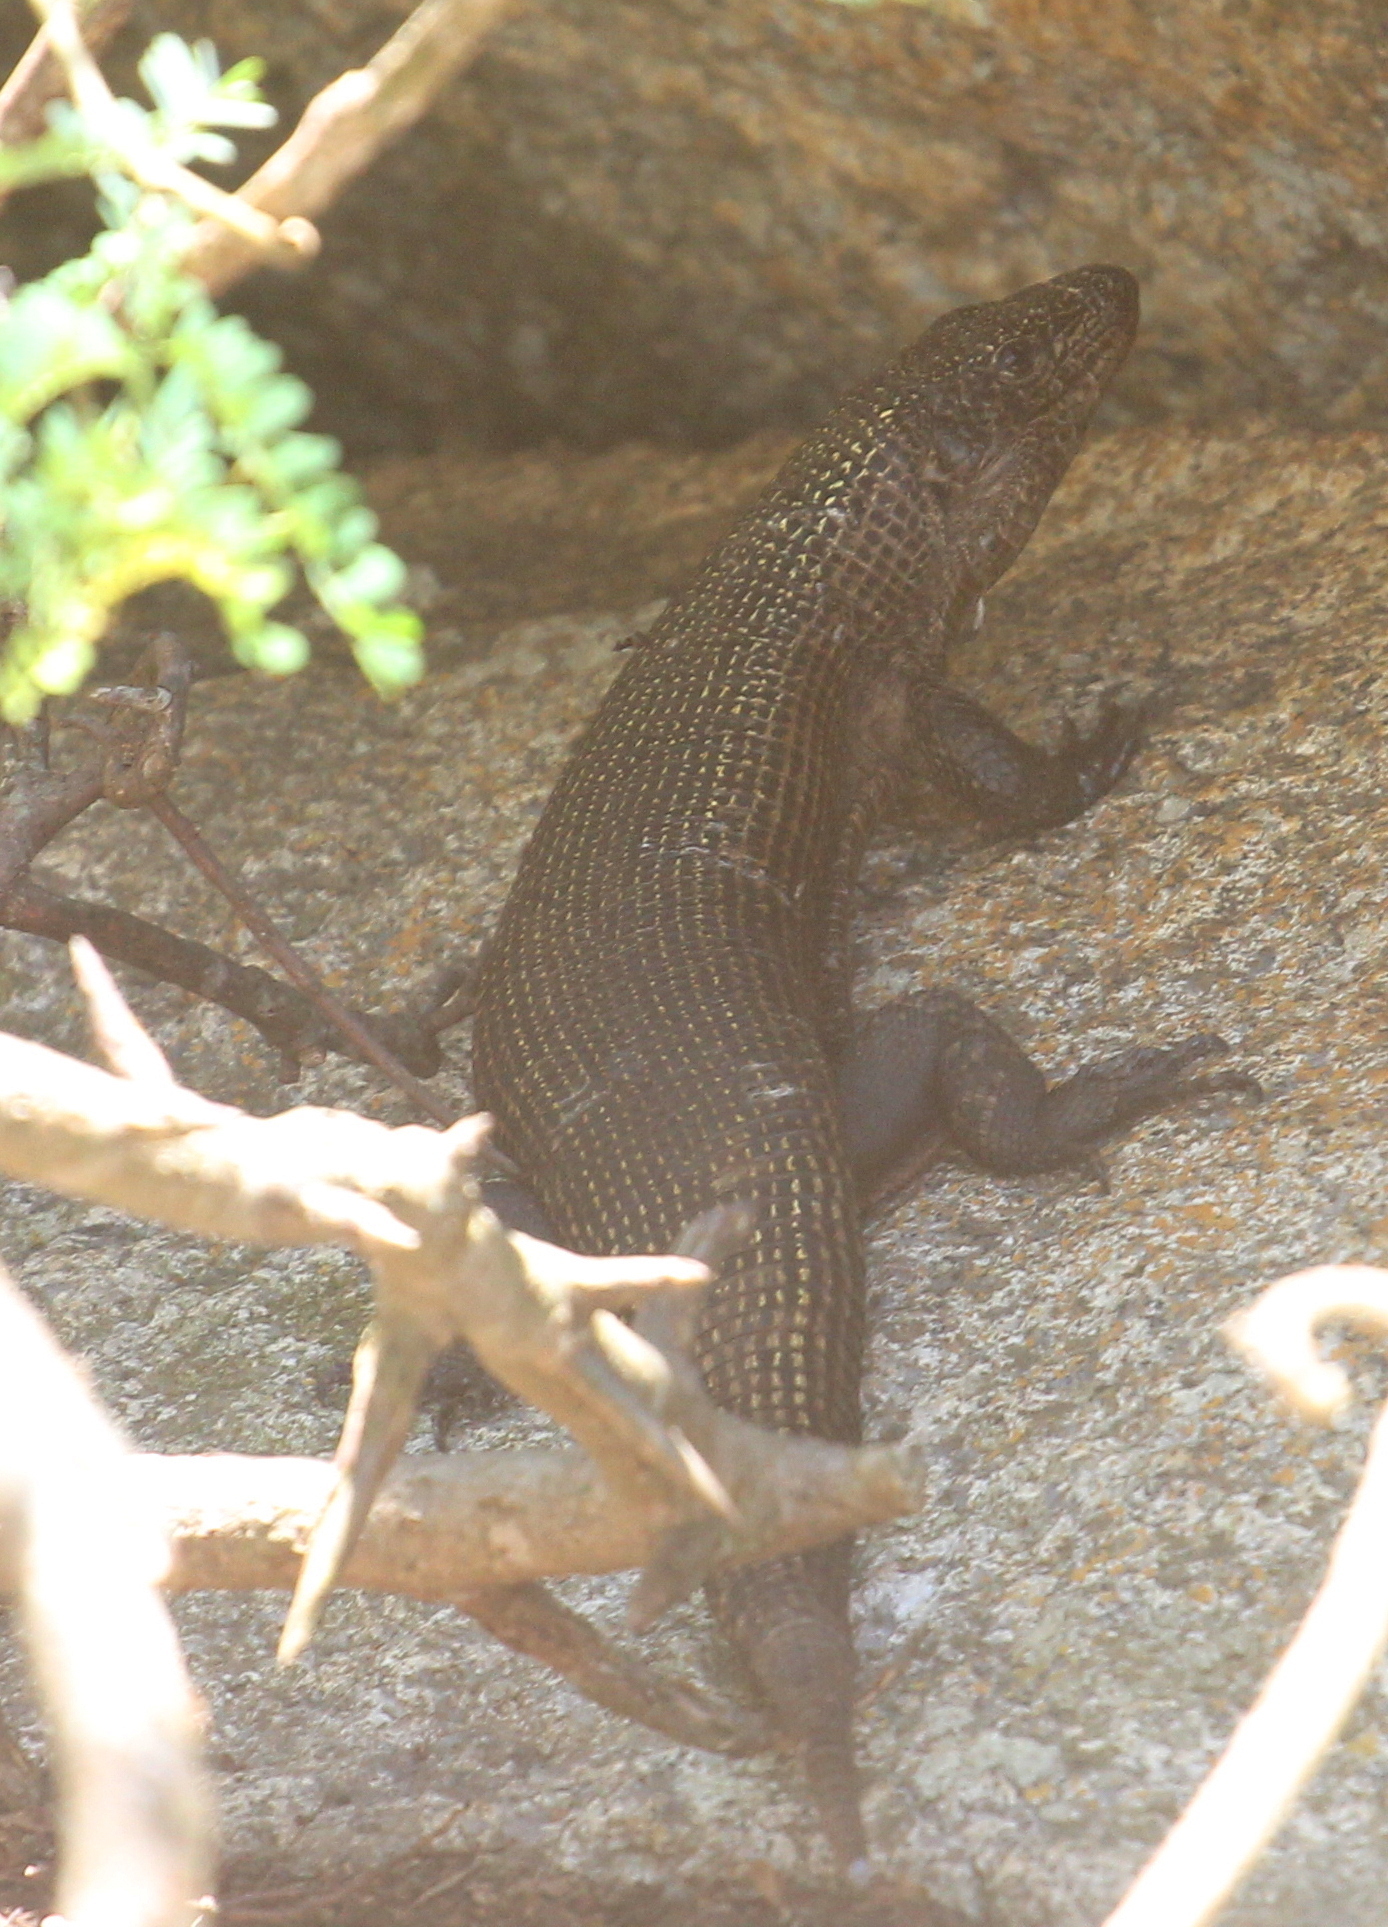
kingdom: Animalia
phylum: Chordata
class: Squamata
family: Gerrhosauridae
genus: Matobosaurus
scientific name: Matobosaurus validus
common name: Common giant plated lizard
